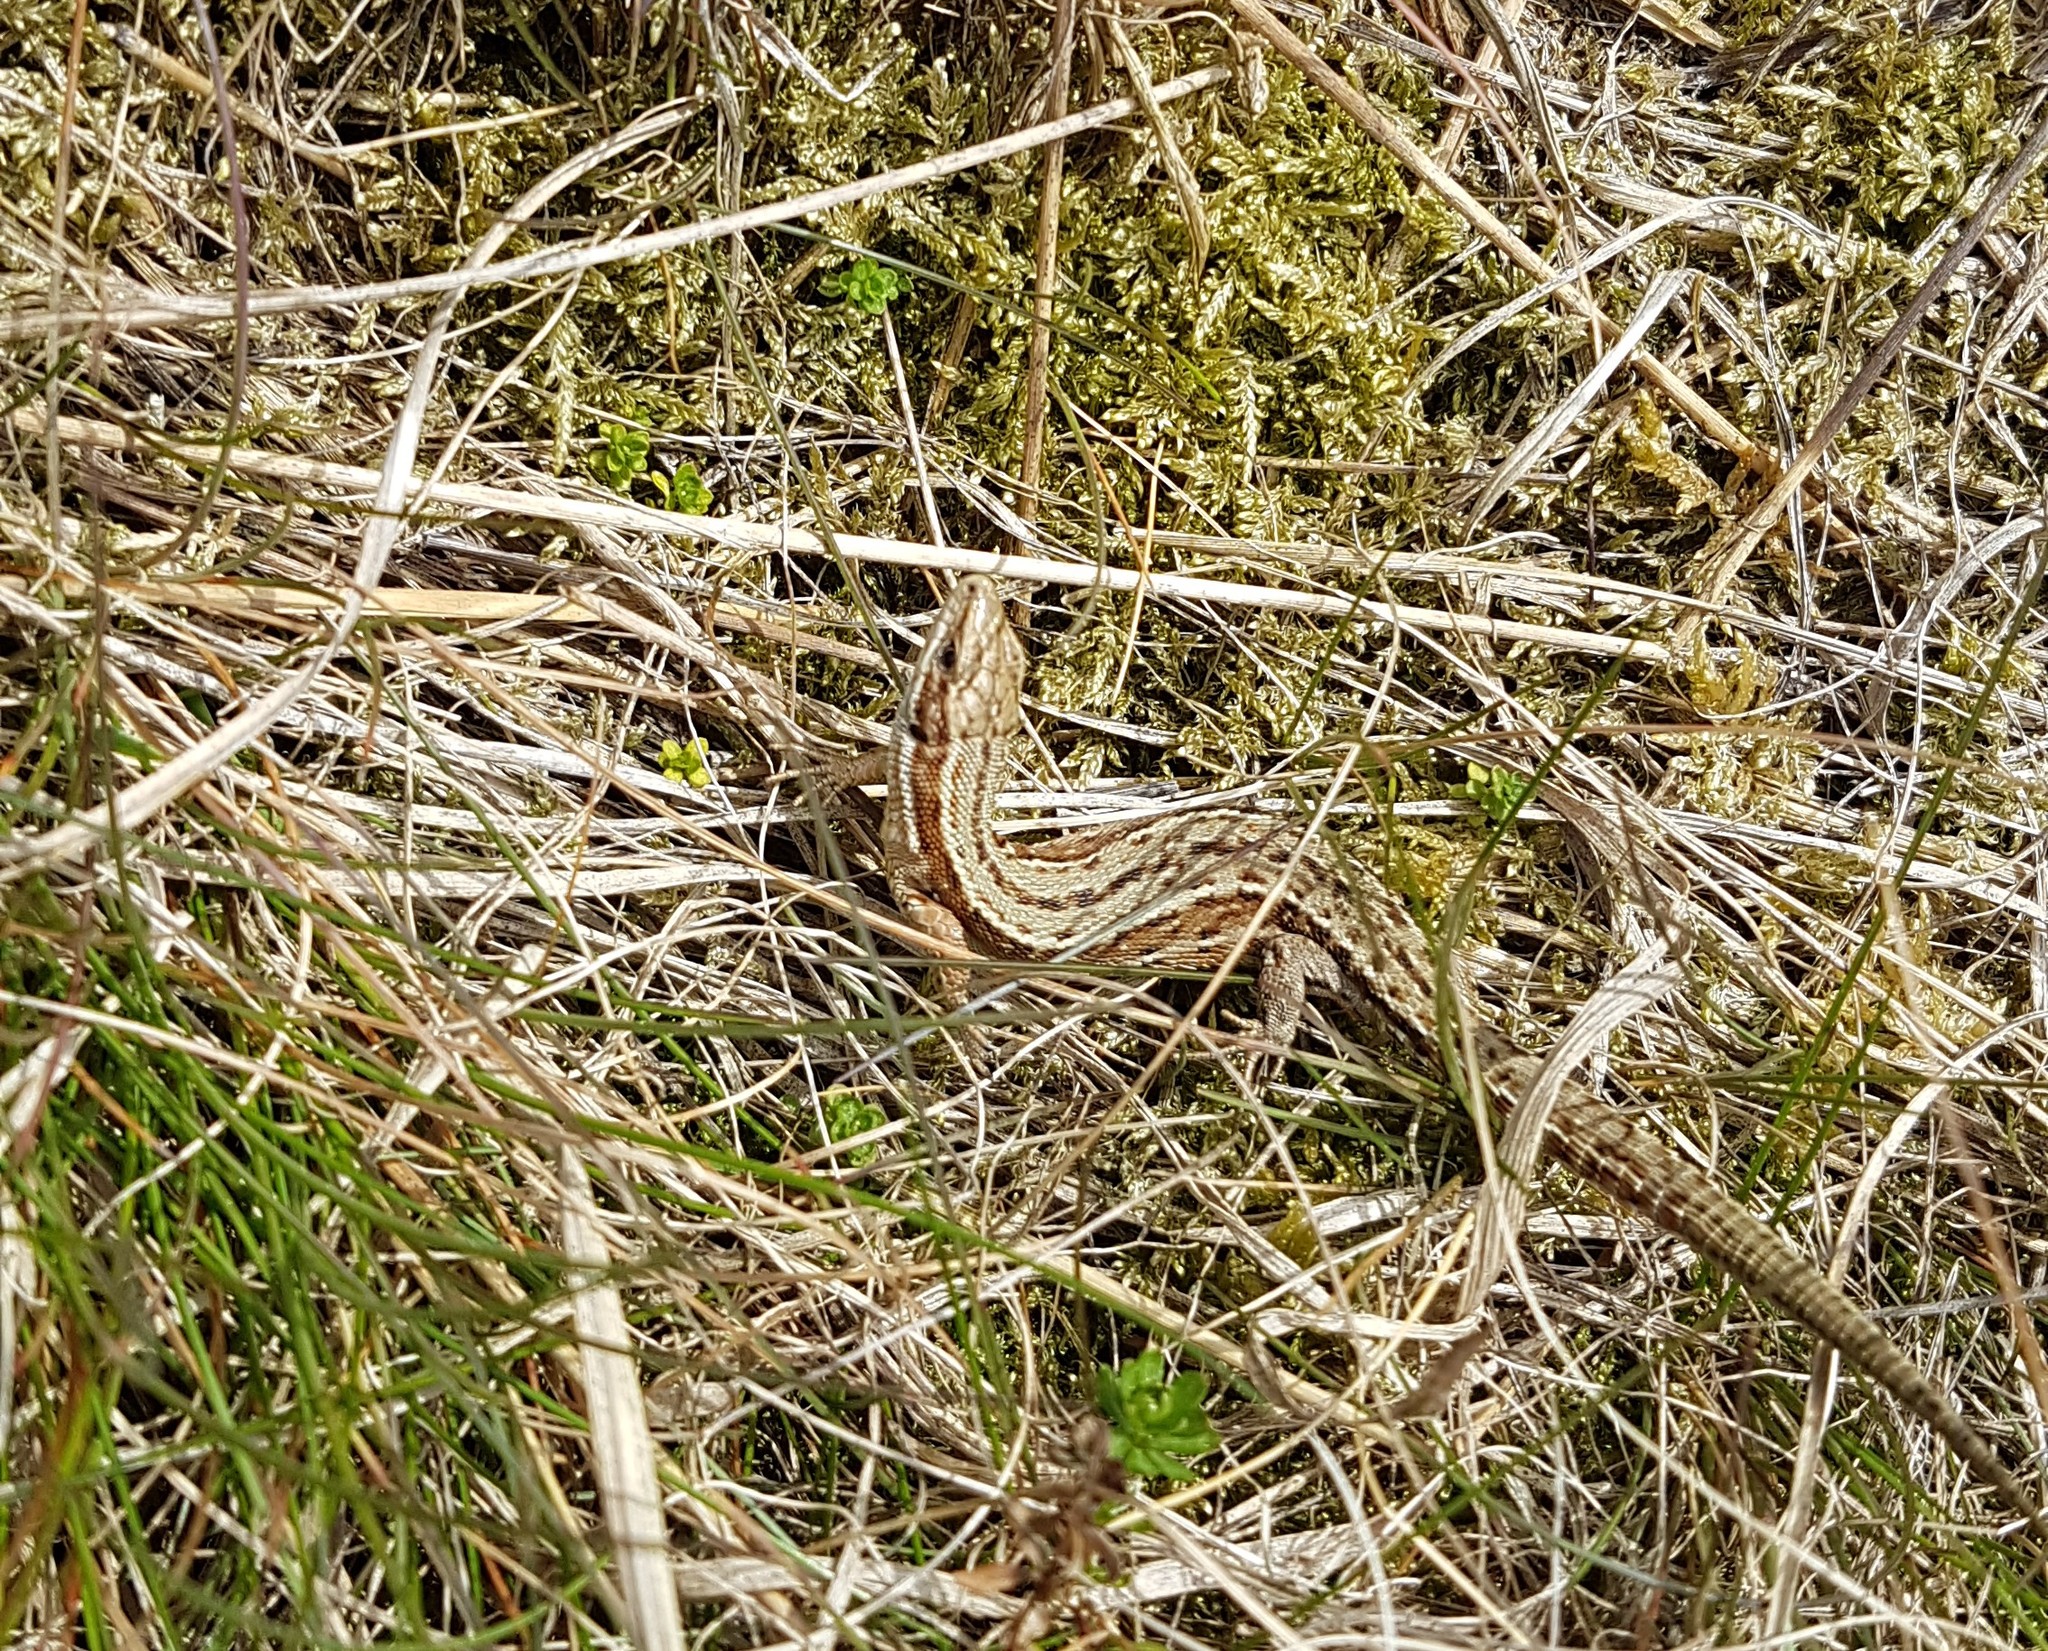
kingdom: Animalia
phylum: Chordata
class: Squamata
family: Lacertidae
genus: Zootoca
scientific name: Zootoca vivipara
